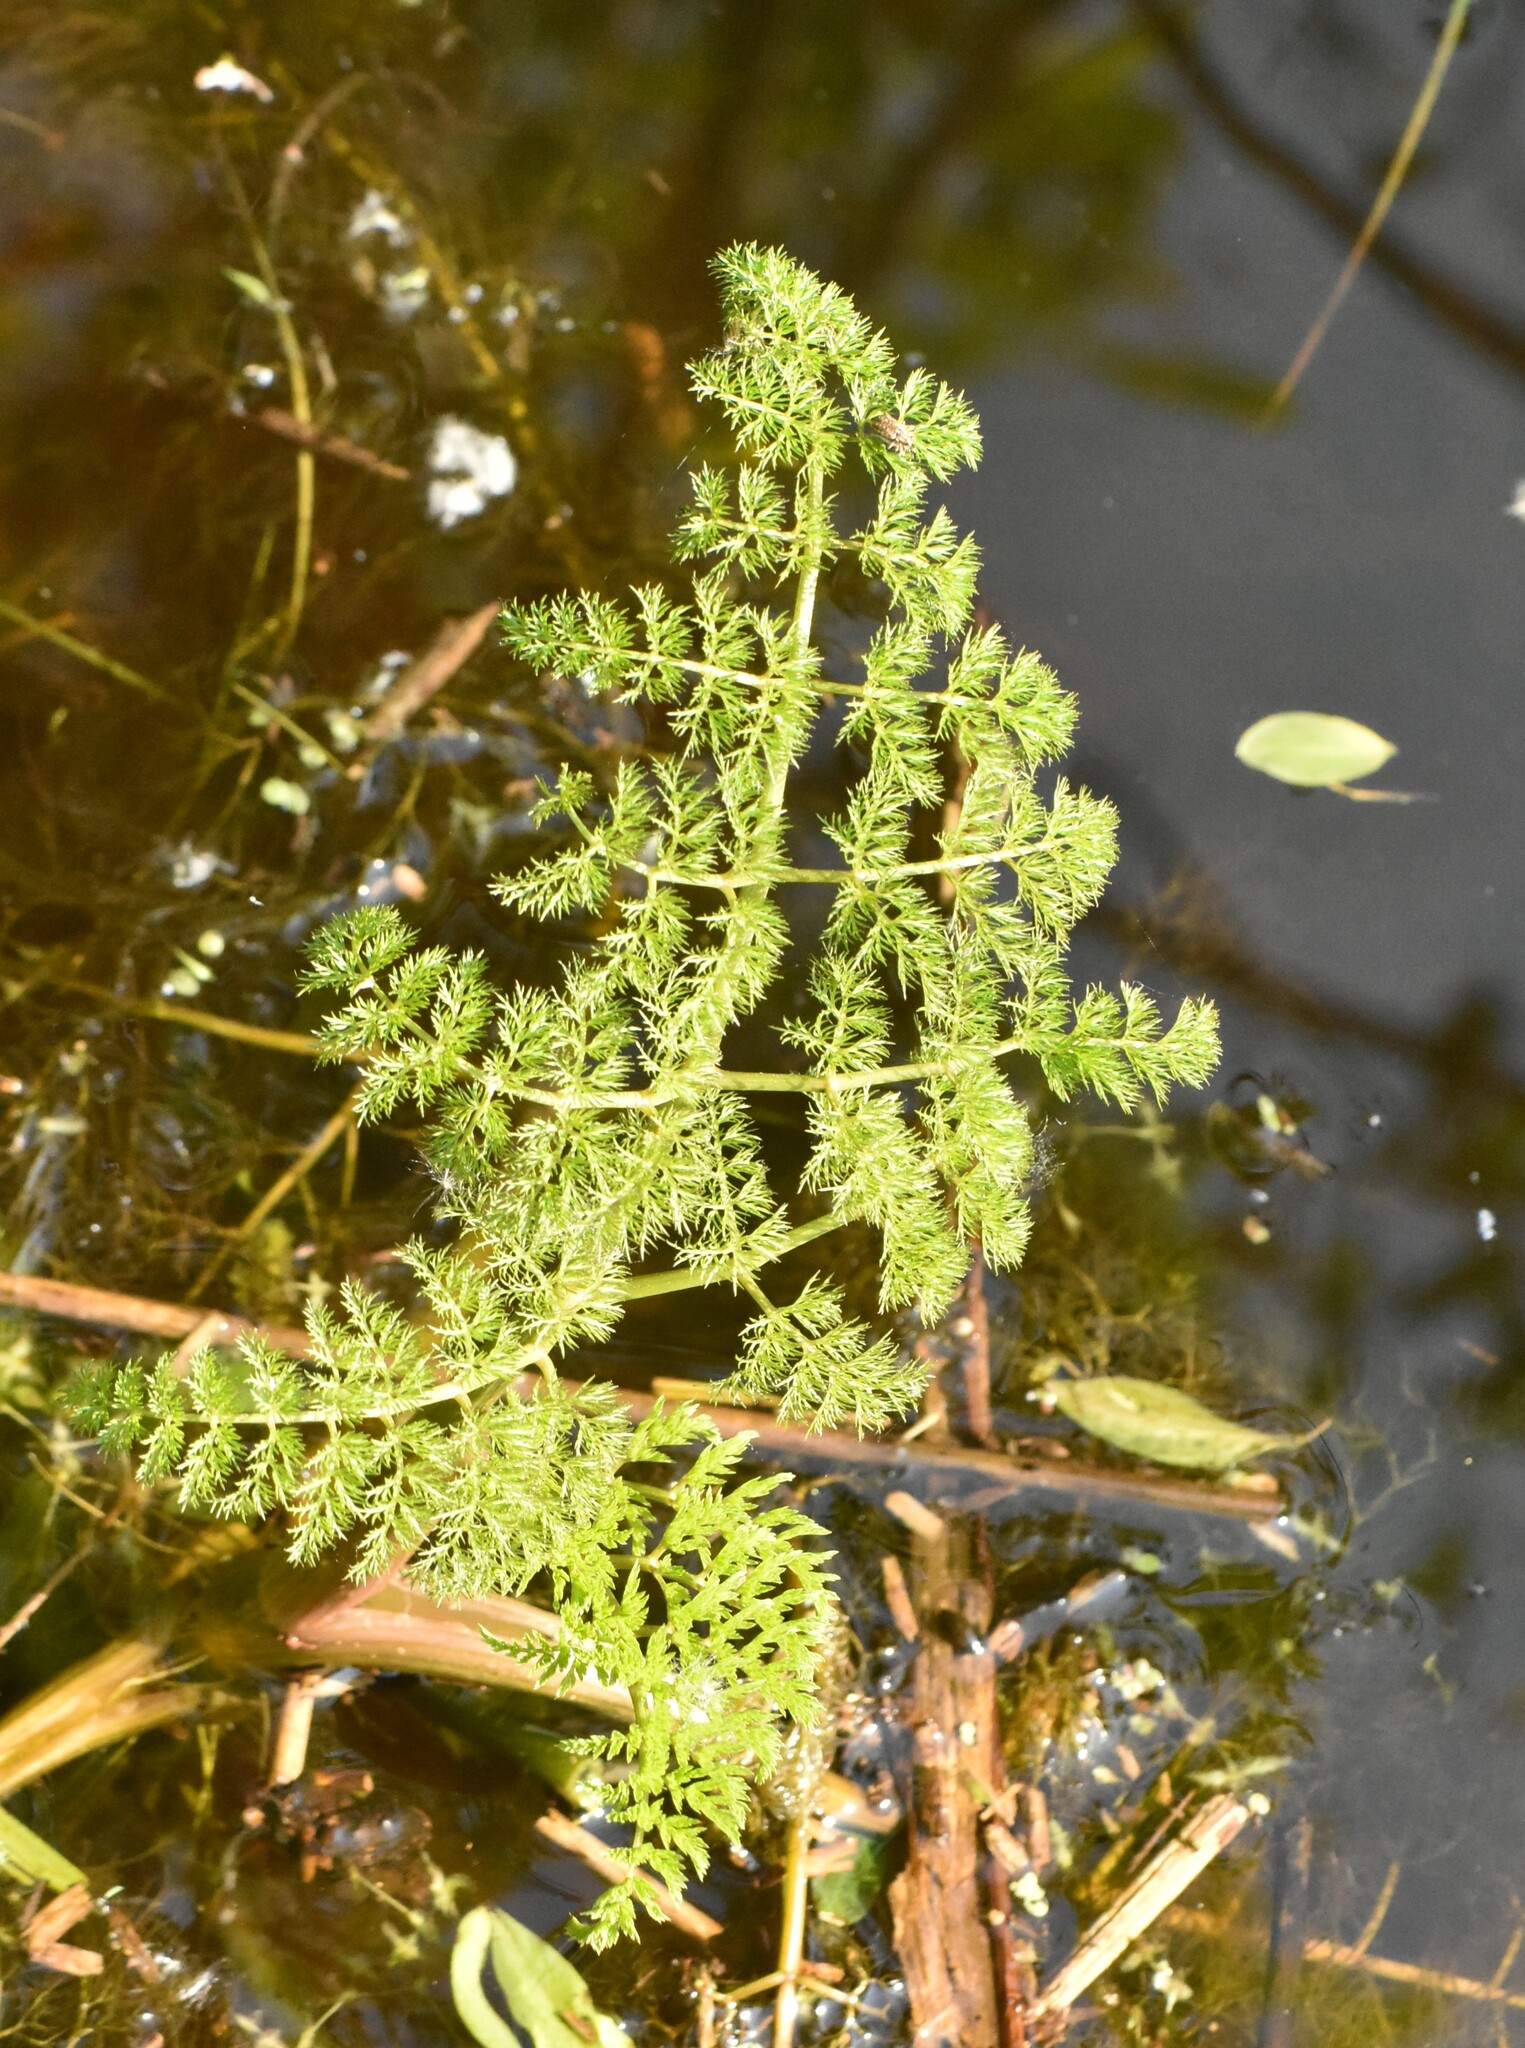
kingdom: Plantae
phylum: Tracheophyta
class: Magnoliopsida
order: Apiales
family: Apiaceae
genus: Oenanthe
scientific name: Oenanthe aquatica
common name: Fine-leaved water-dropwort
